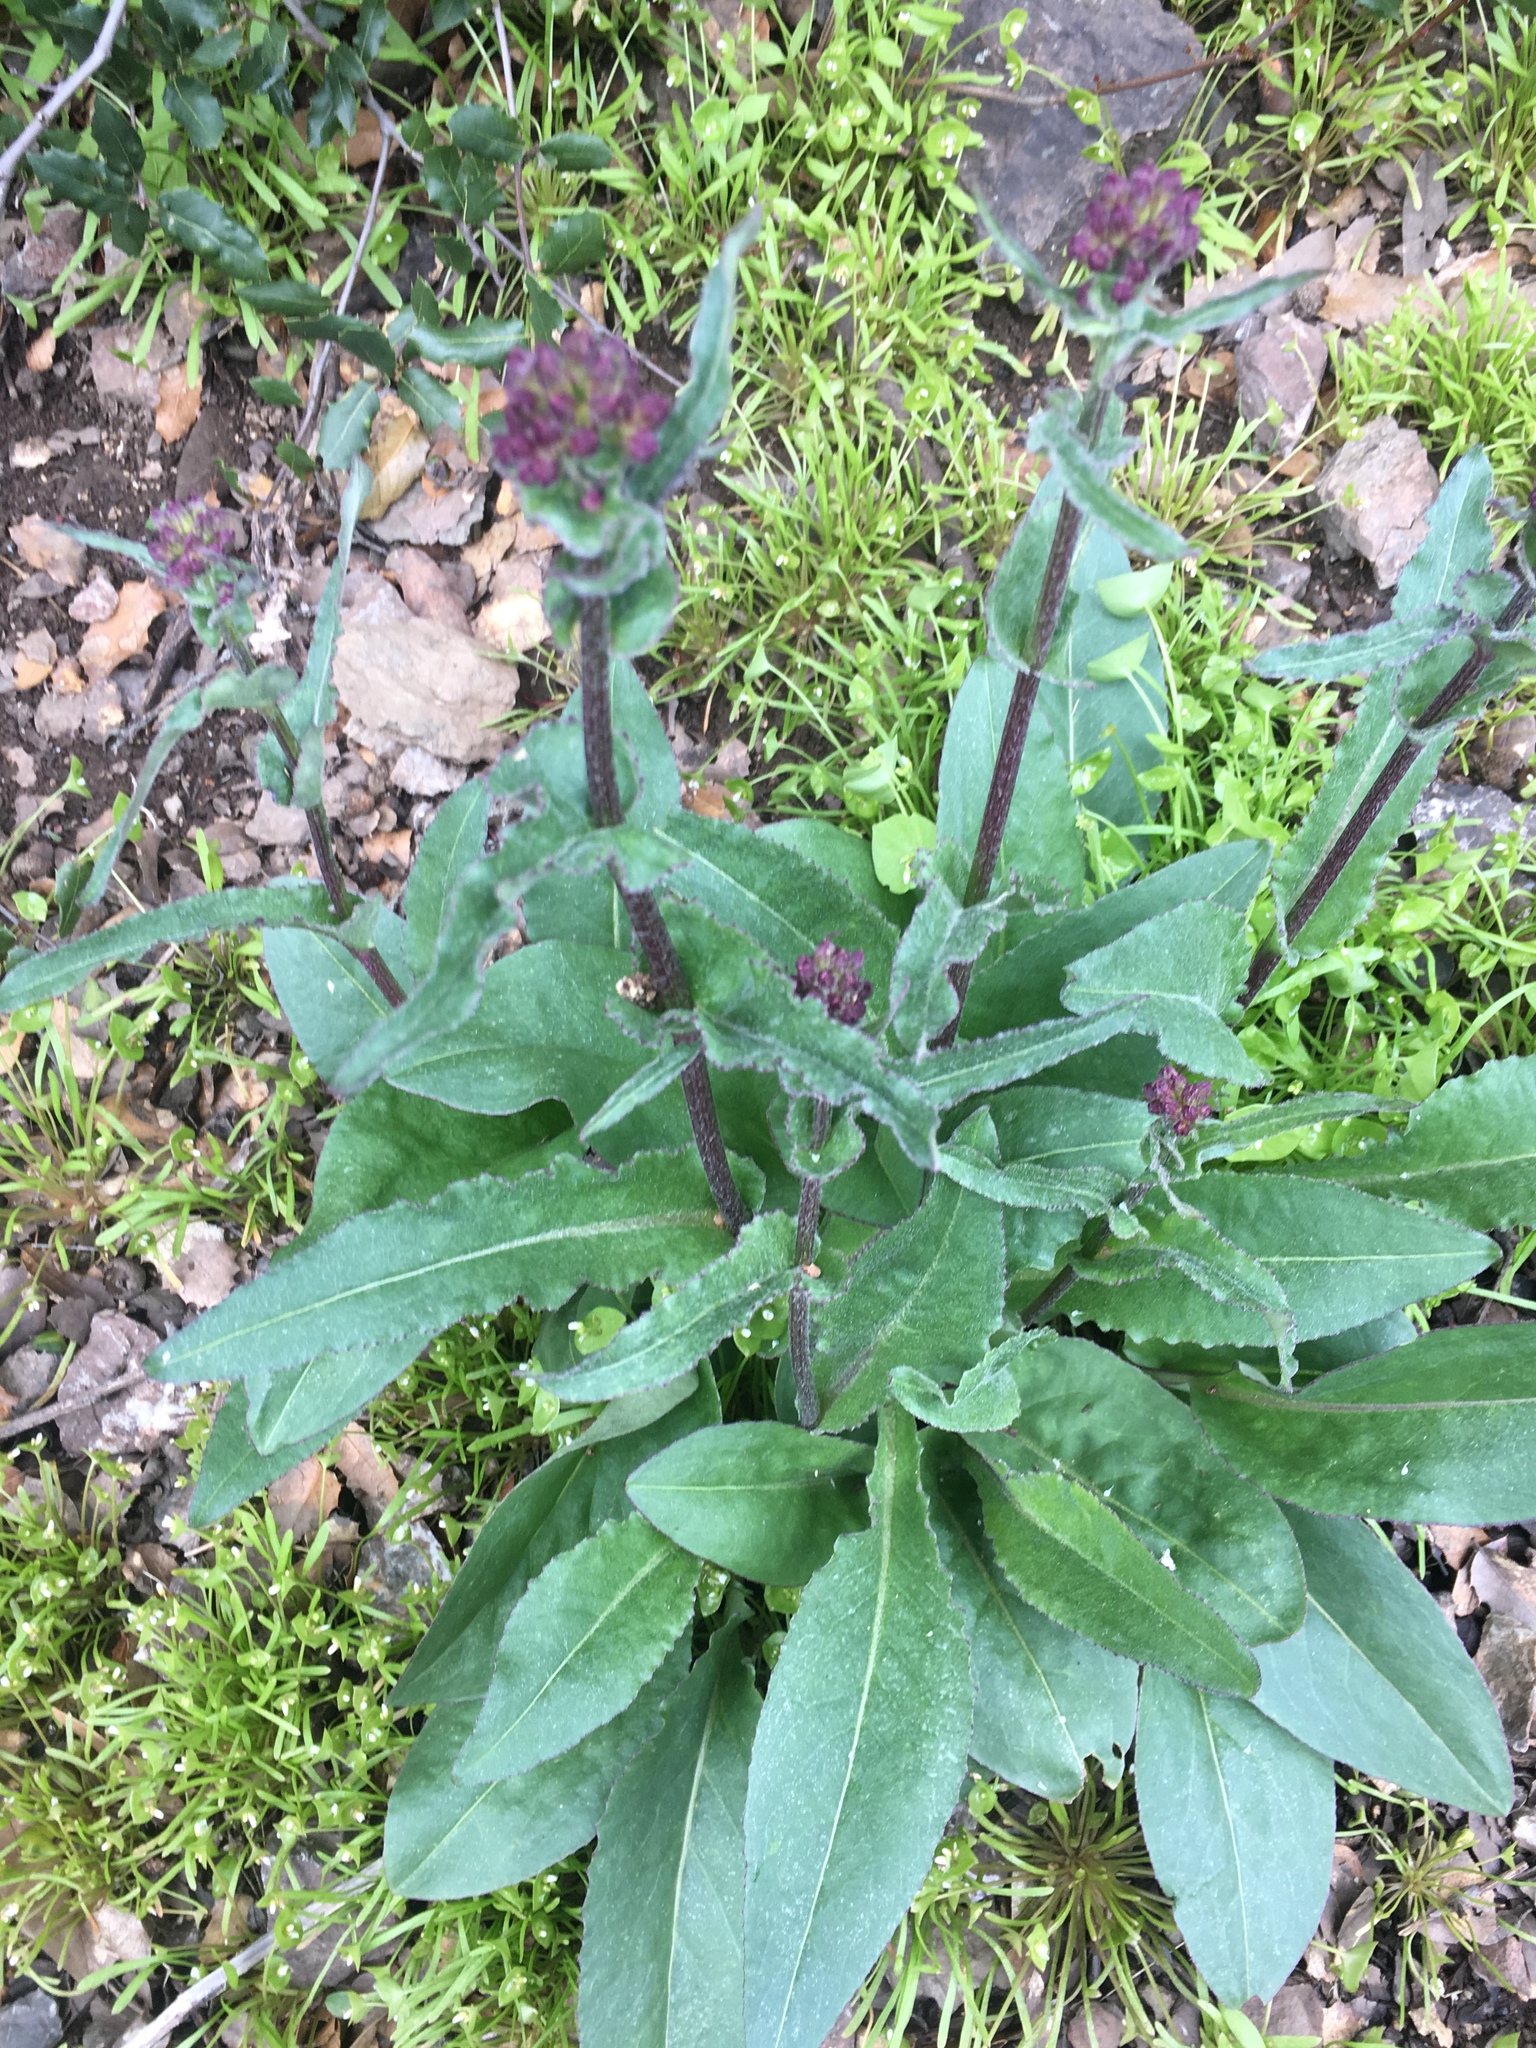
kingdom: Plantae
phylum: Tracheophyta
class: Magnoliopsida
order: Asterales
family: Asteraceae
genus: Senecio
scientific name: Senecio aronicoides
